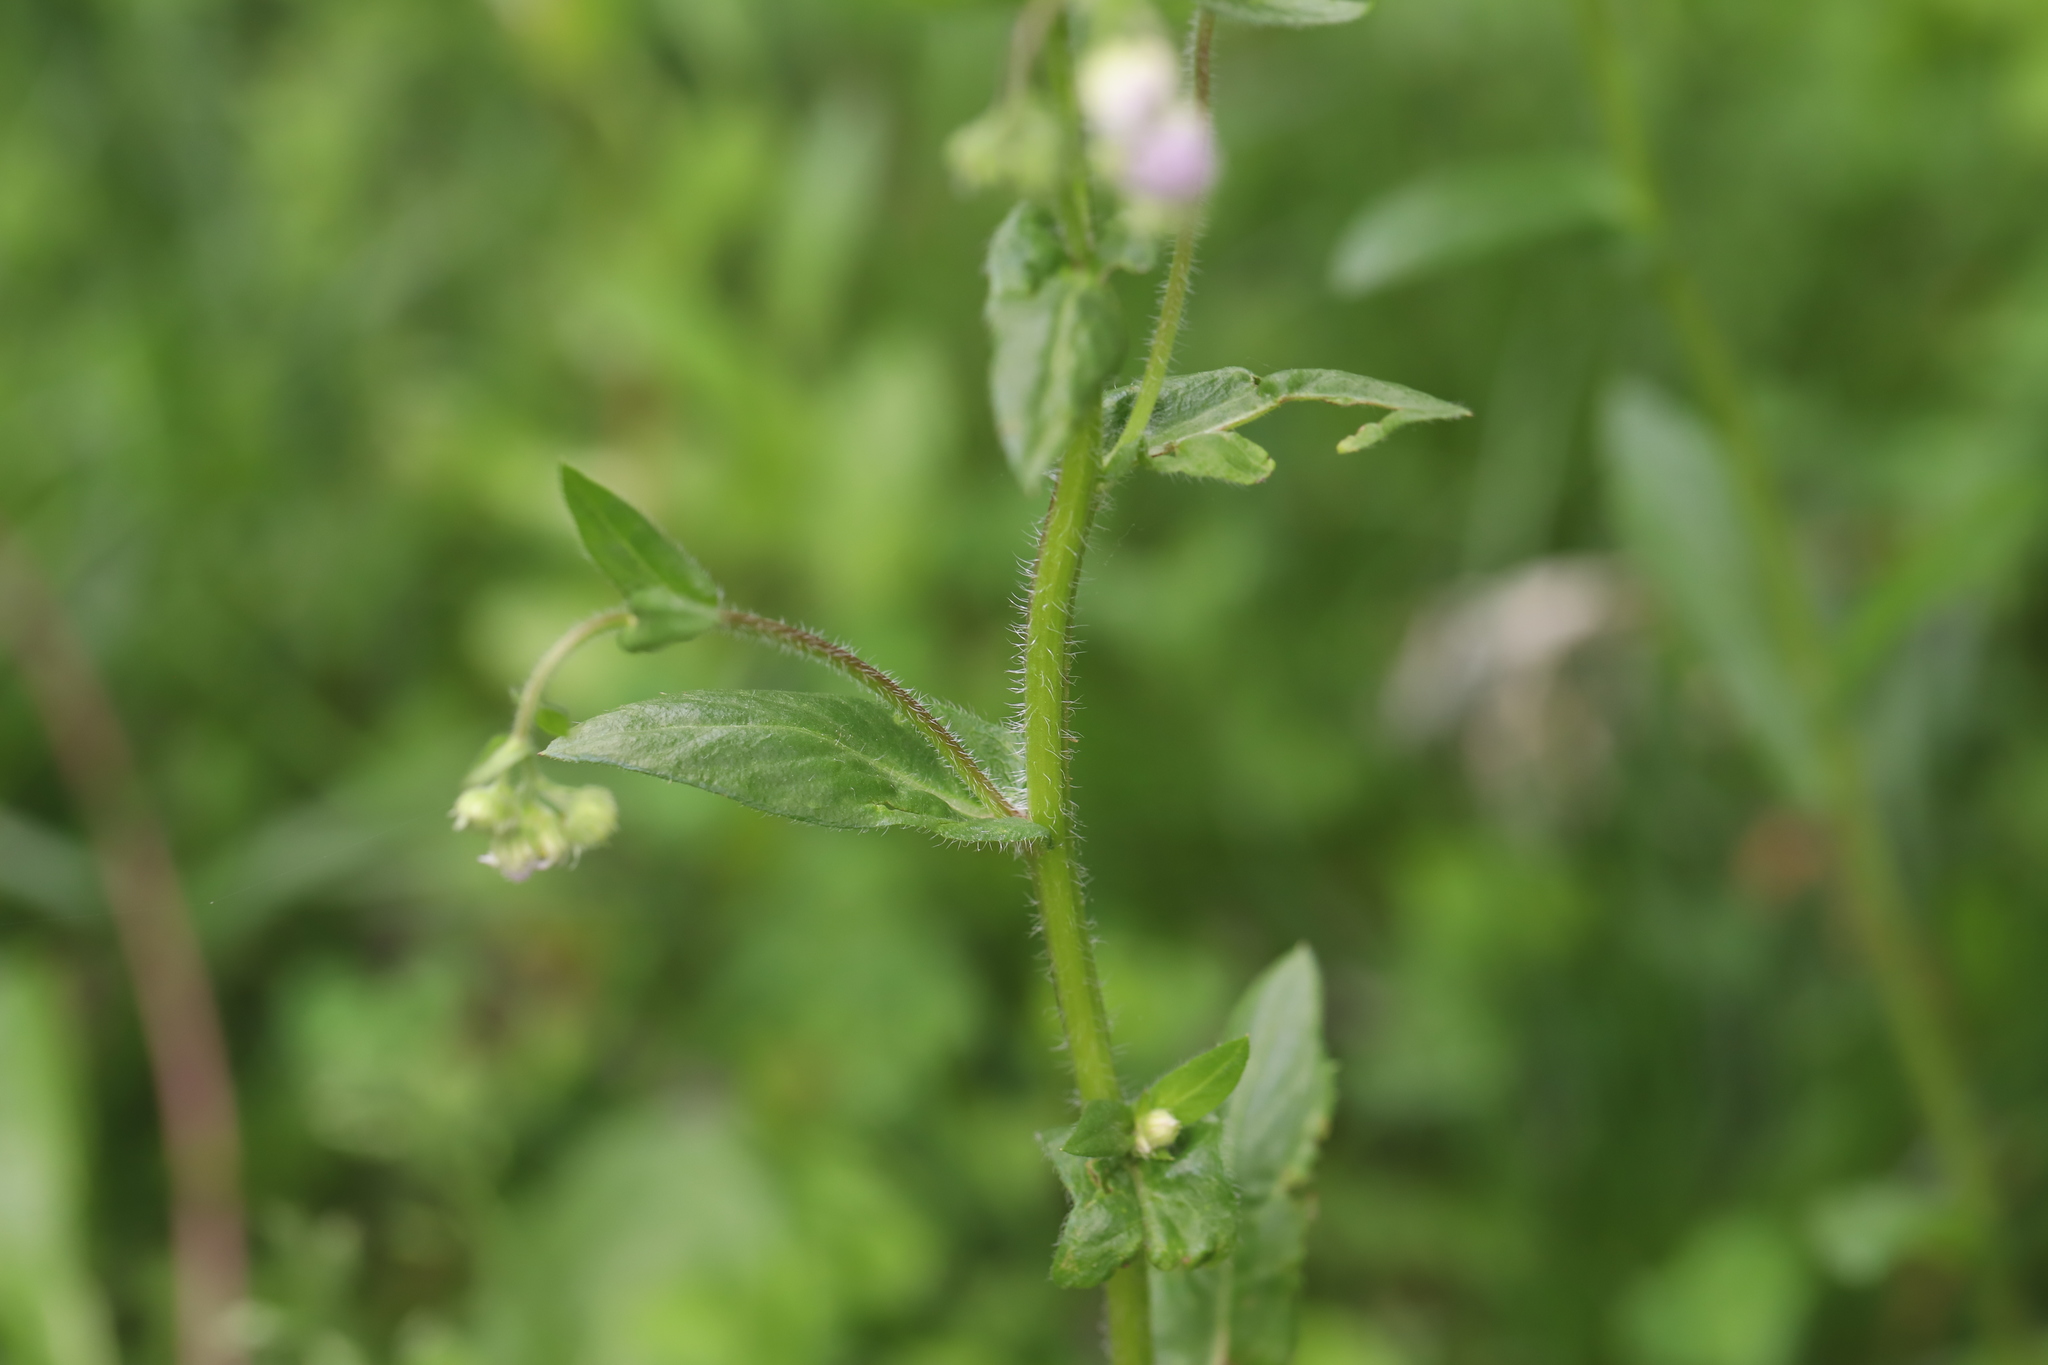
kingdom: Plantae
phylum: Tracheophyta
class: Magnoliopsida
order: Asterales
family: Asteraceae
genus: Erigeron
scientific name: Erigeron philadelphicus
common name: Robin's-plantain
